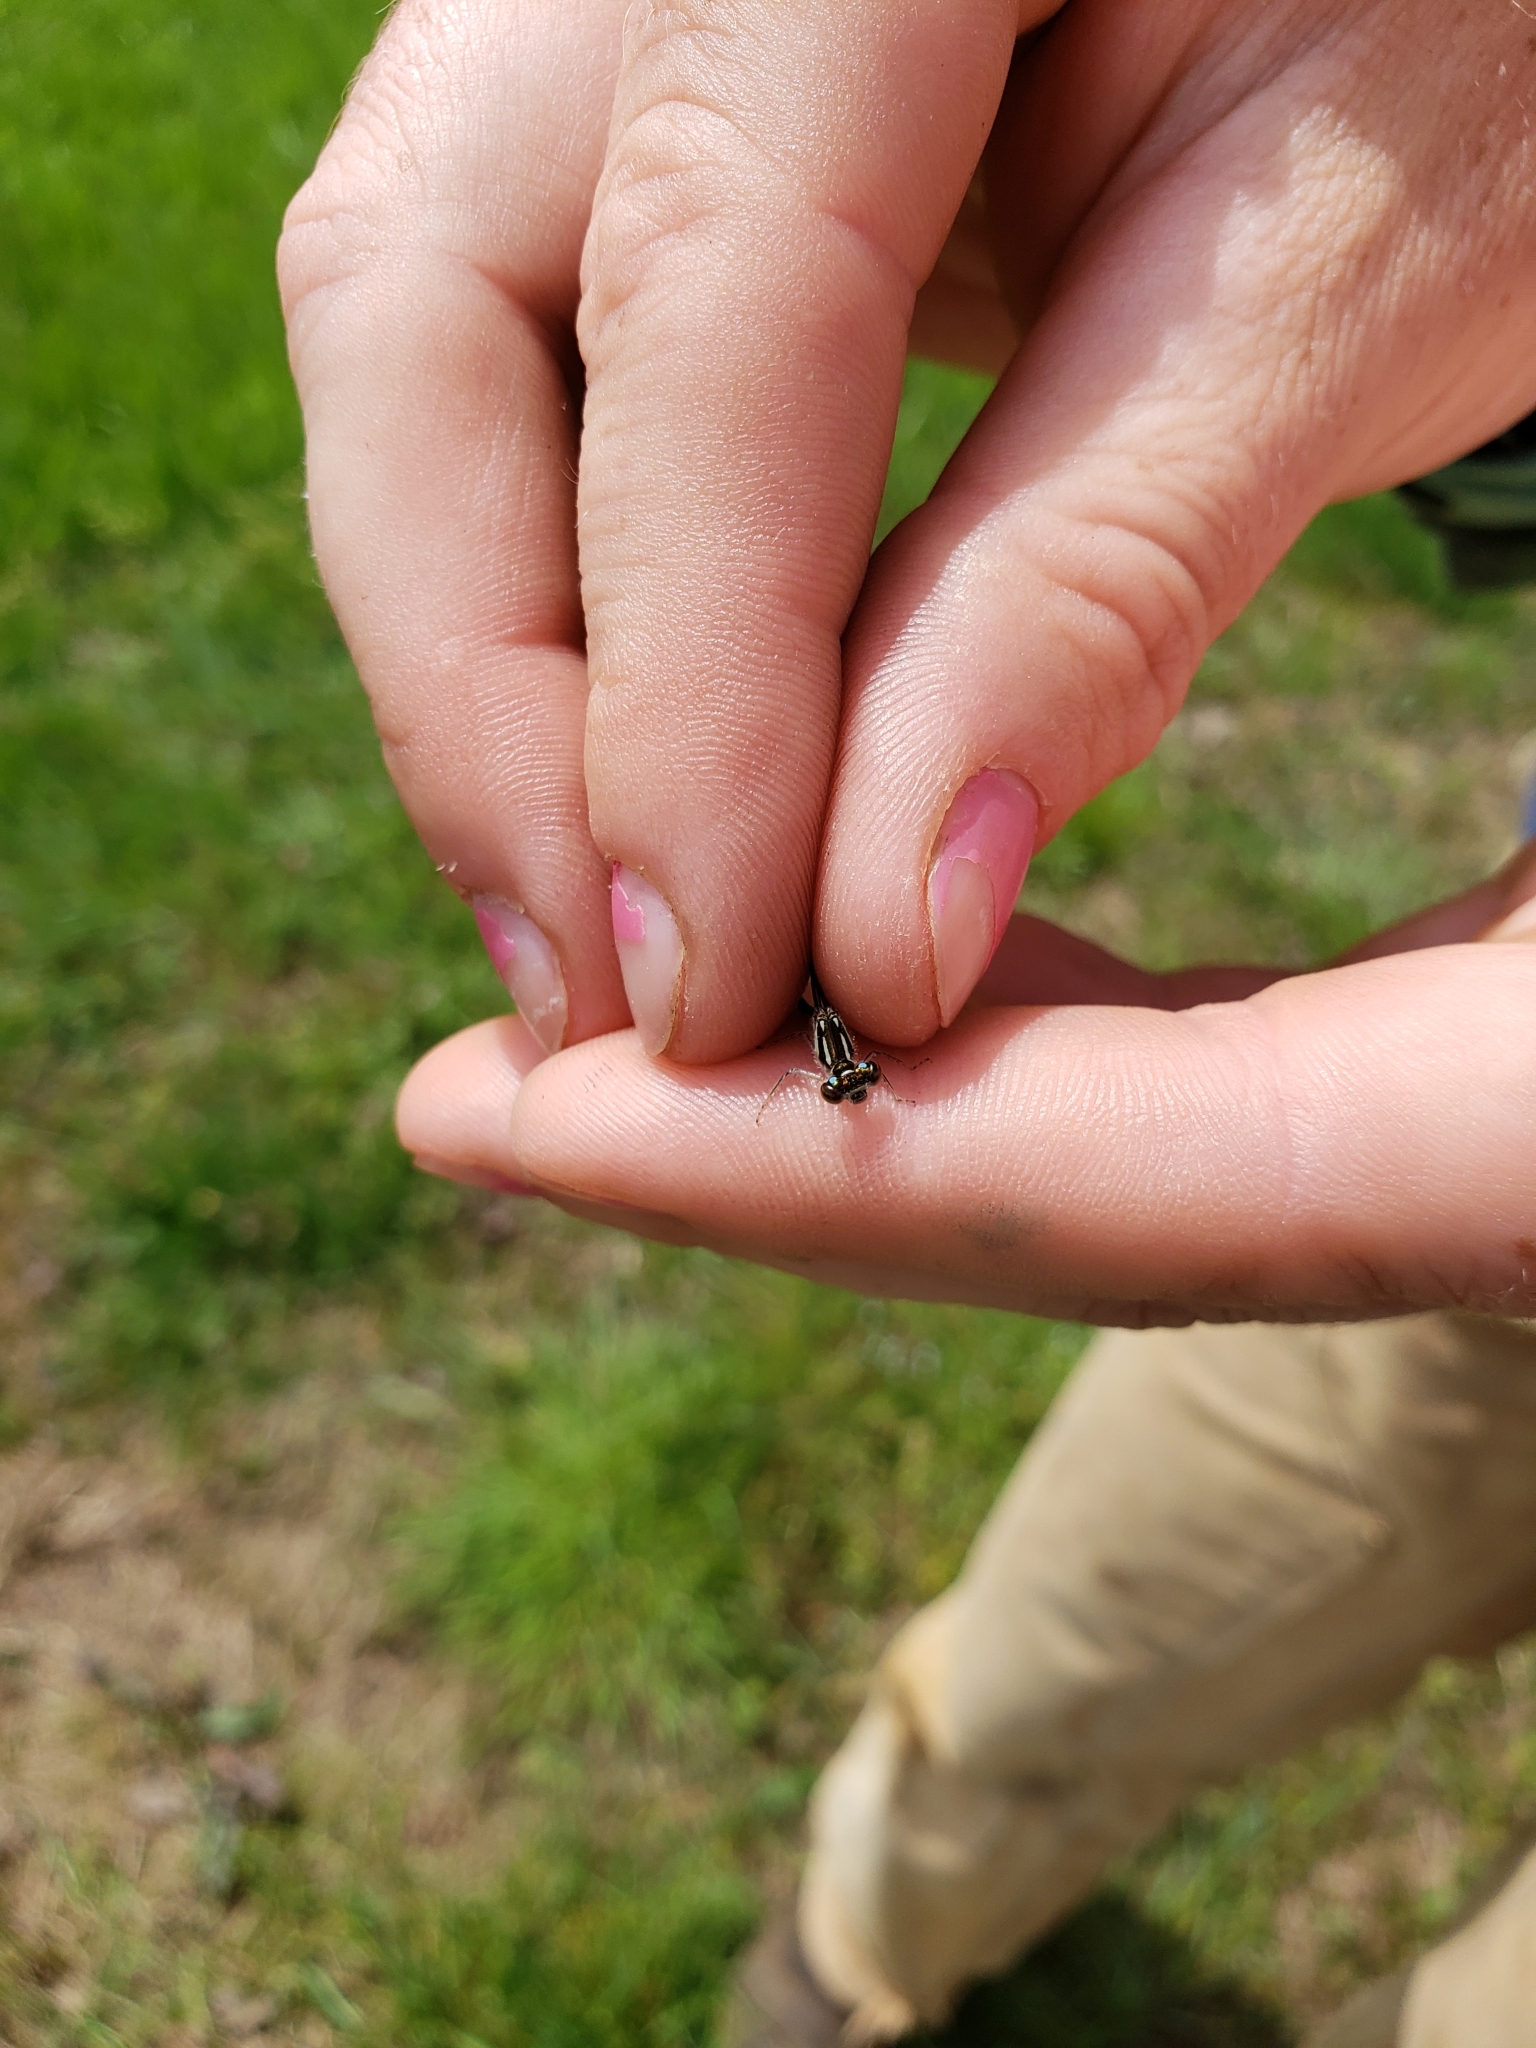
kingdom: Animalia
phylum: Arthropoda
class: Insecta
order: Odonata
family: Coenagrionidae
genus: Ischnura
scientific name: Ischnura posita
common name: Fragile forktail
